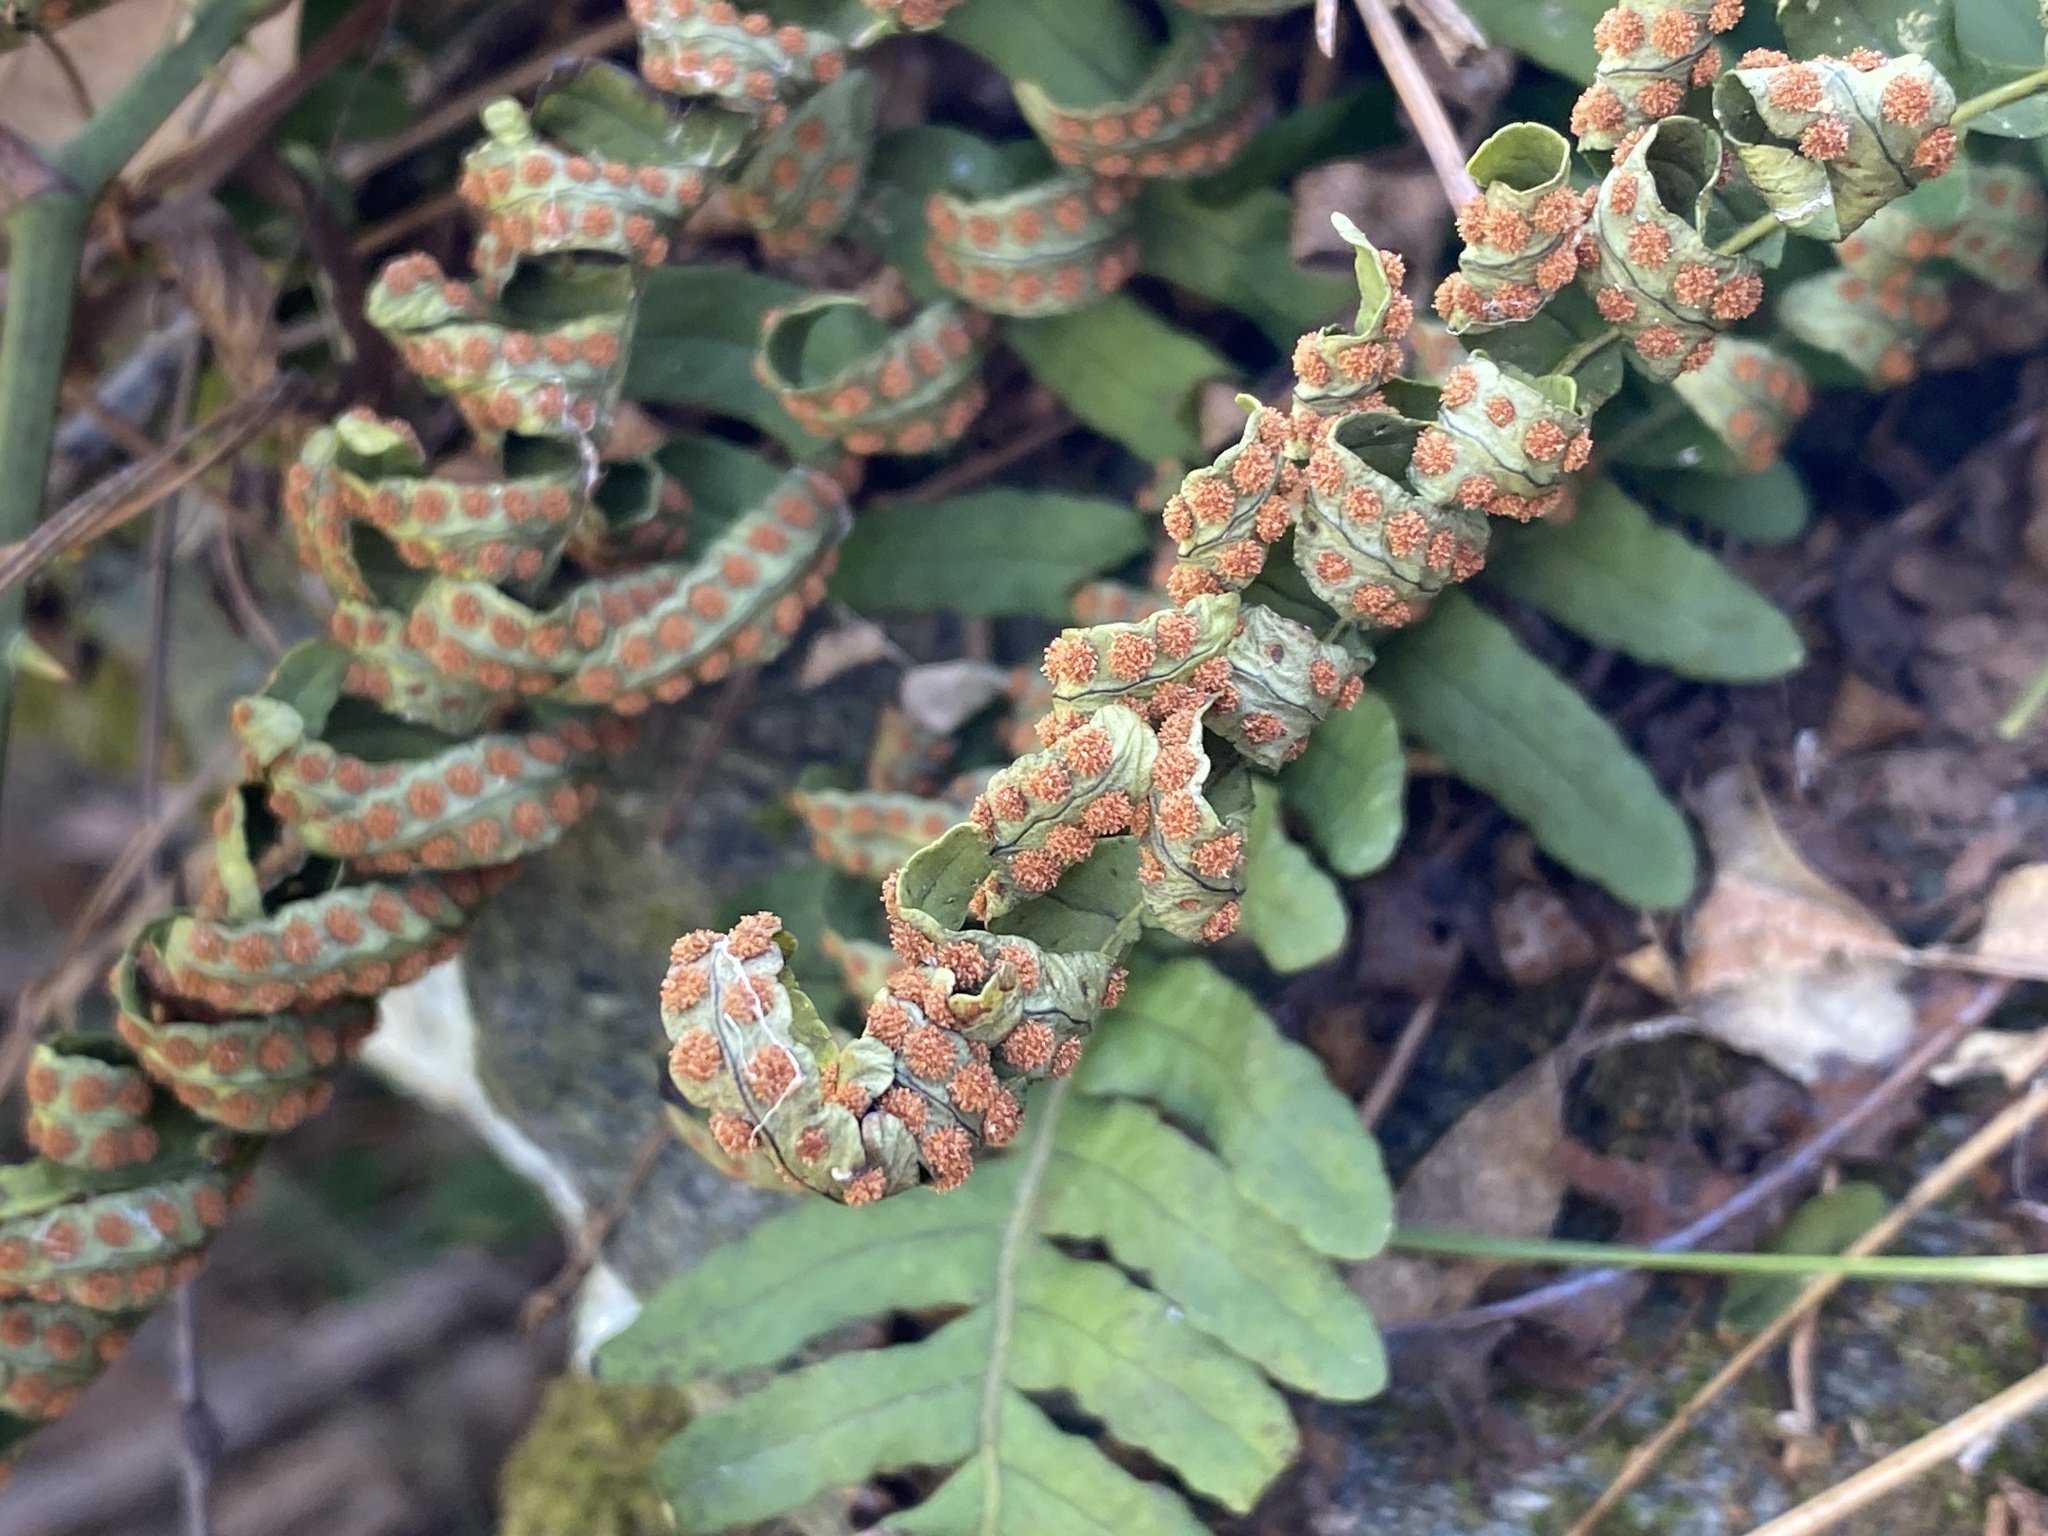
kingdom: Plantae
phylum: Tracheophyta
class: Polypodiopsida
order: Polypodiales
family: Polypodiaceae
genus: Polypodium
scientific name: Polypodium virginianum
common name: American wall fern
